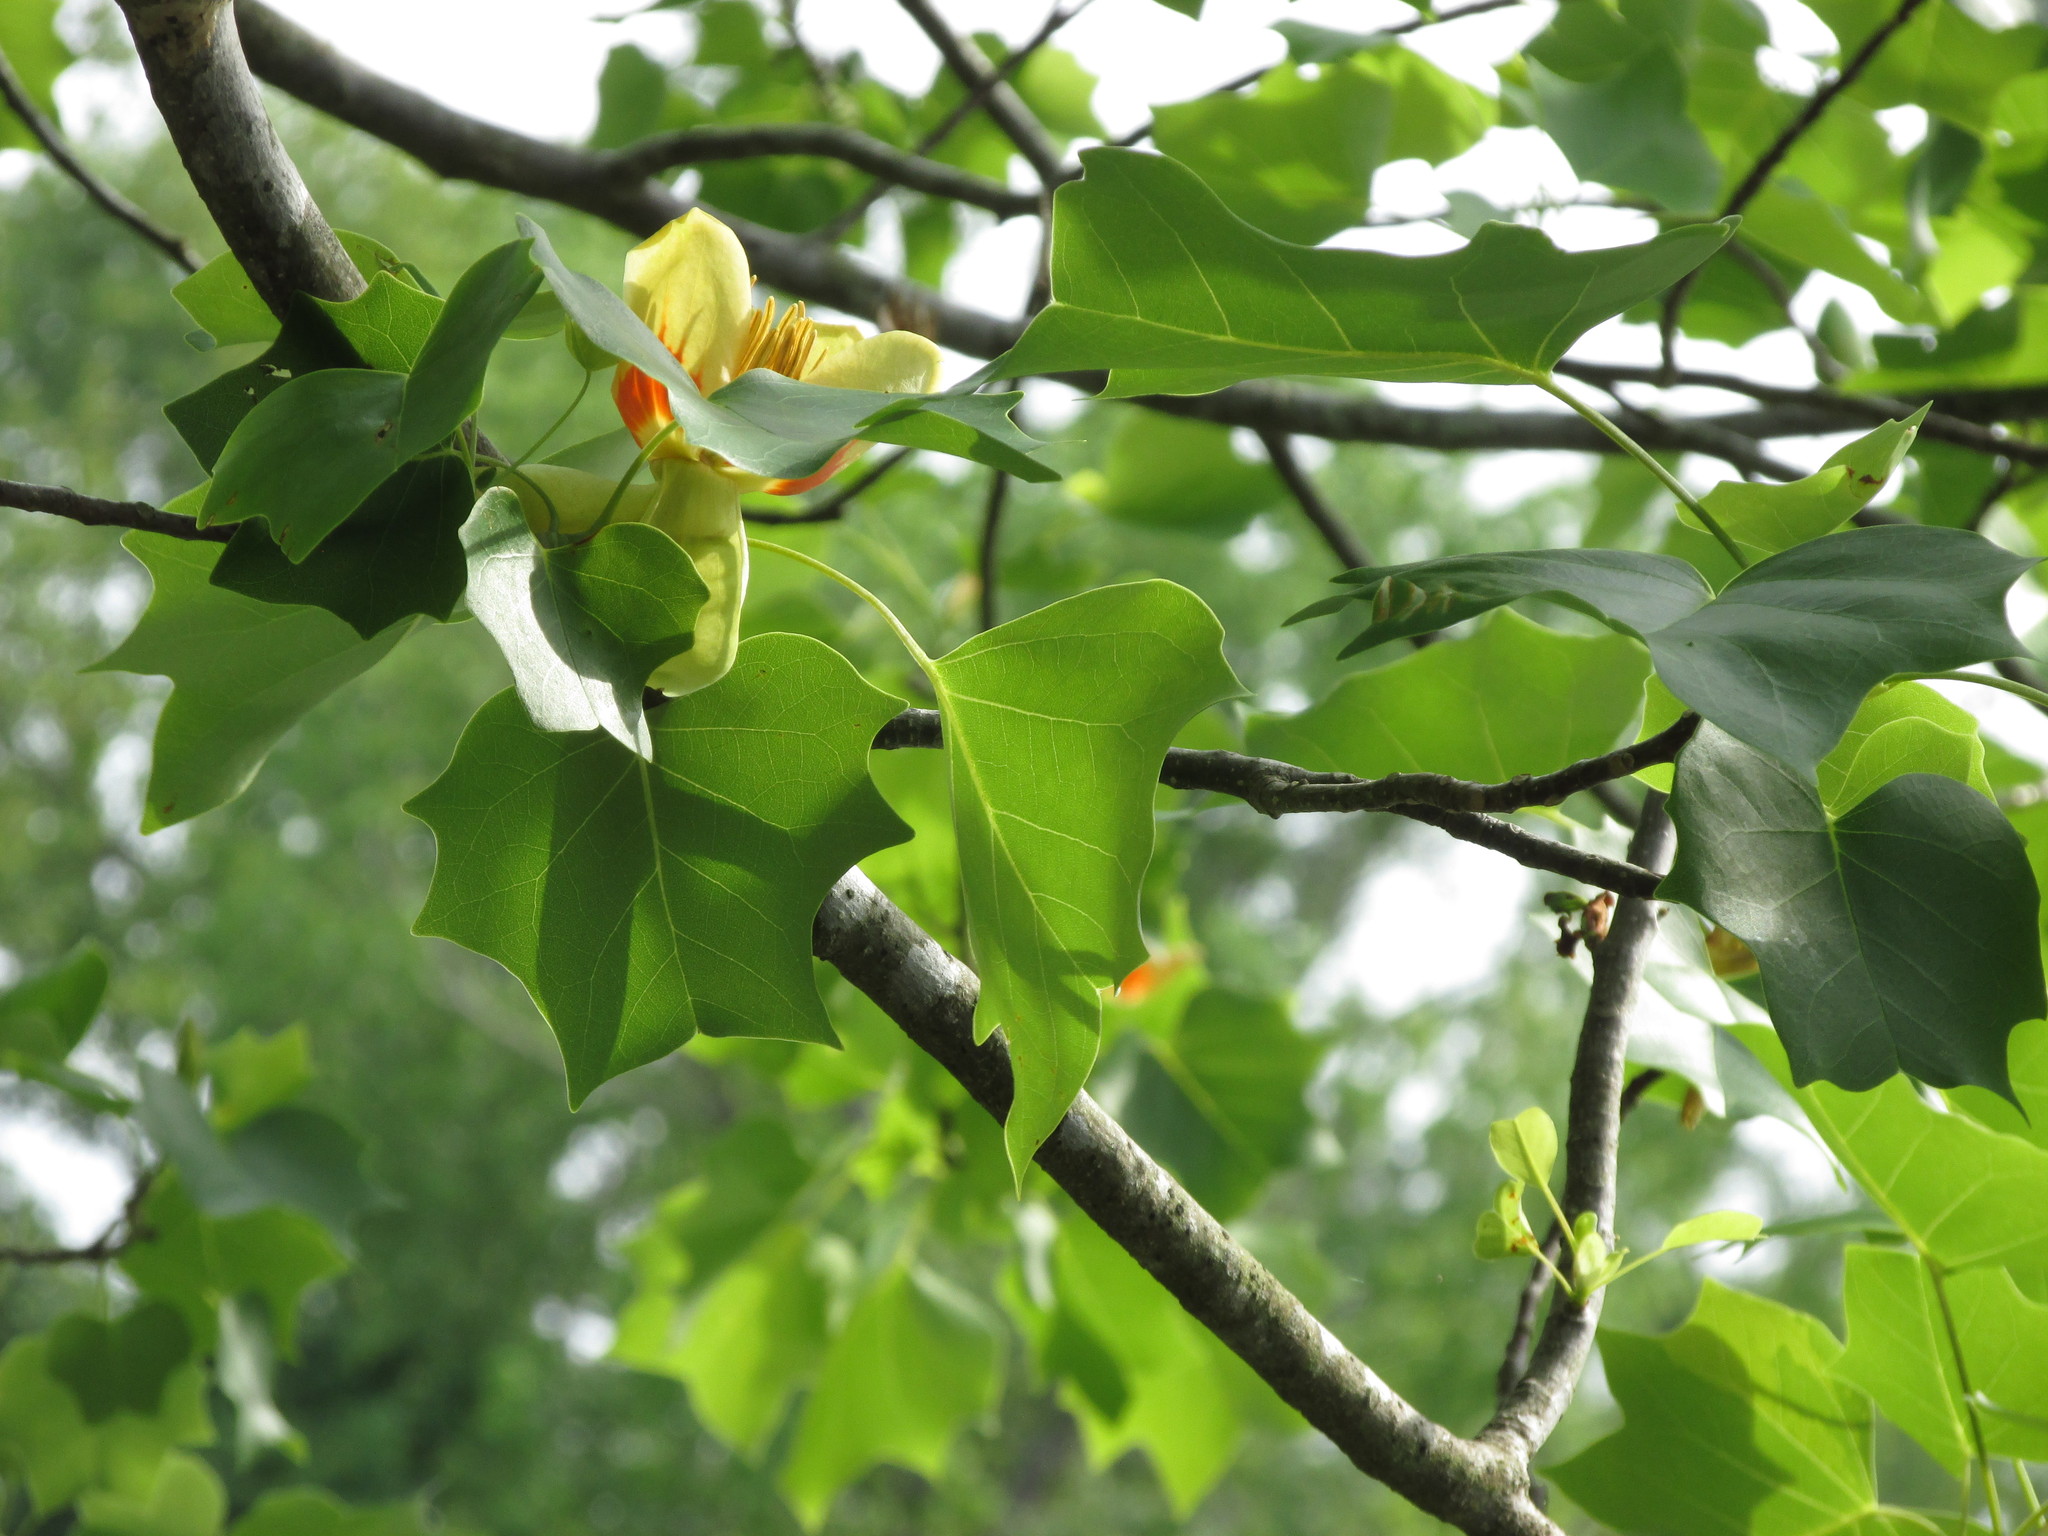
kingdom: Plantae
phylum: Tracheophyta
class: Magnoliopsida
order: Magnoliales
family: Magnoliaceae
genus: Liriodendron
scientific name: Liriodendron tulipifera
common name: Tulip tree
